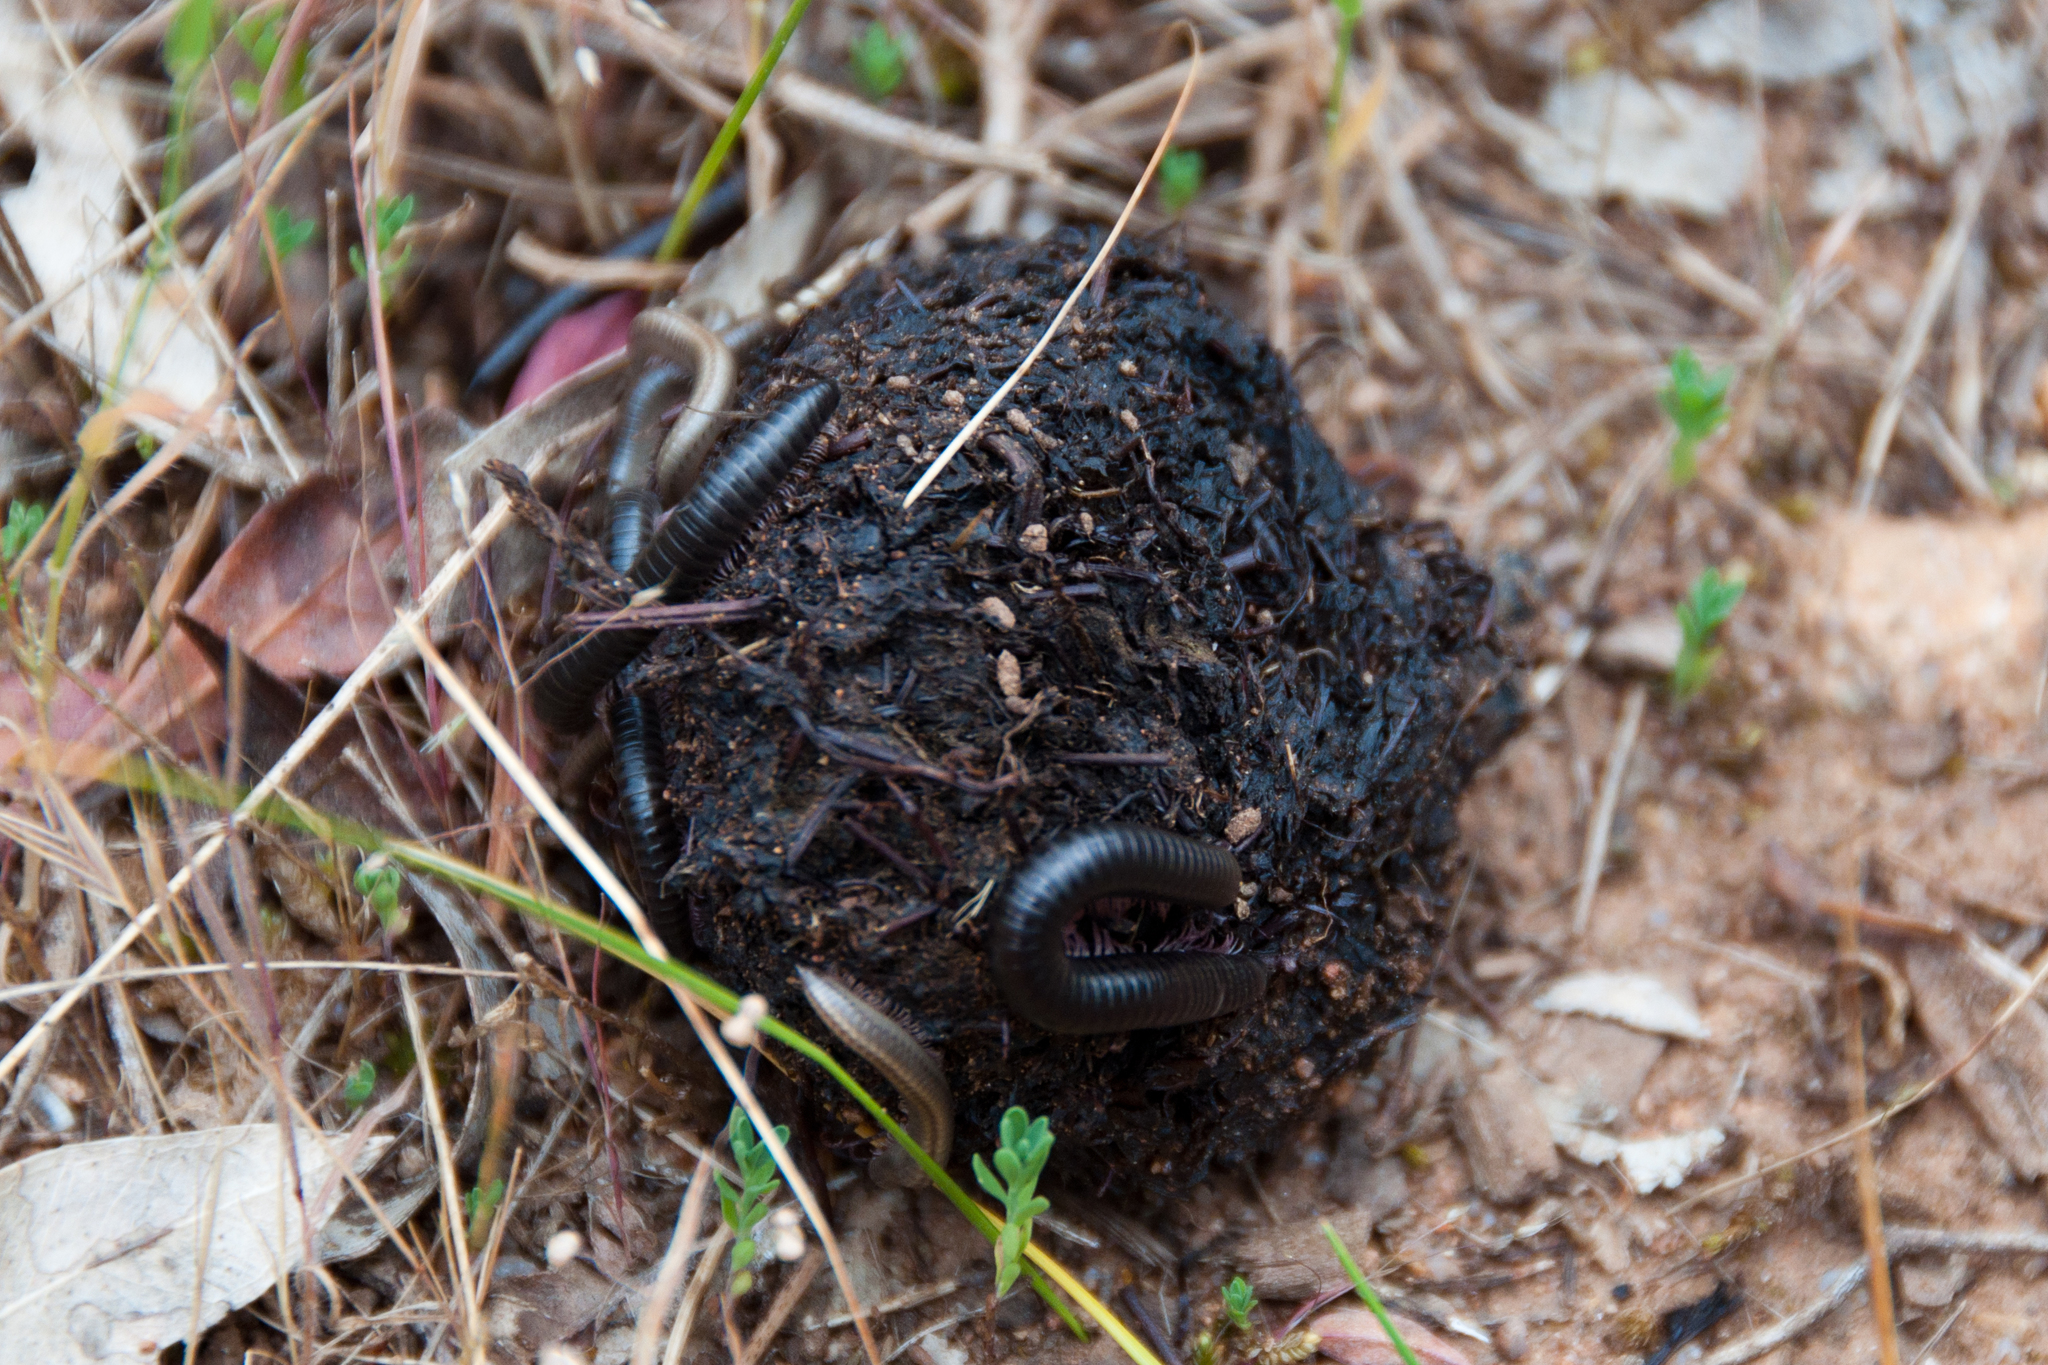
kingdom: Animalia
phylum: Arthropoda
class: Diplopoda
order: Julida
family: Julidae
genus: Ommatoiulus
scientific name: Ommatoiulus moreleti
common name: Portuguese millipede
